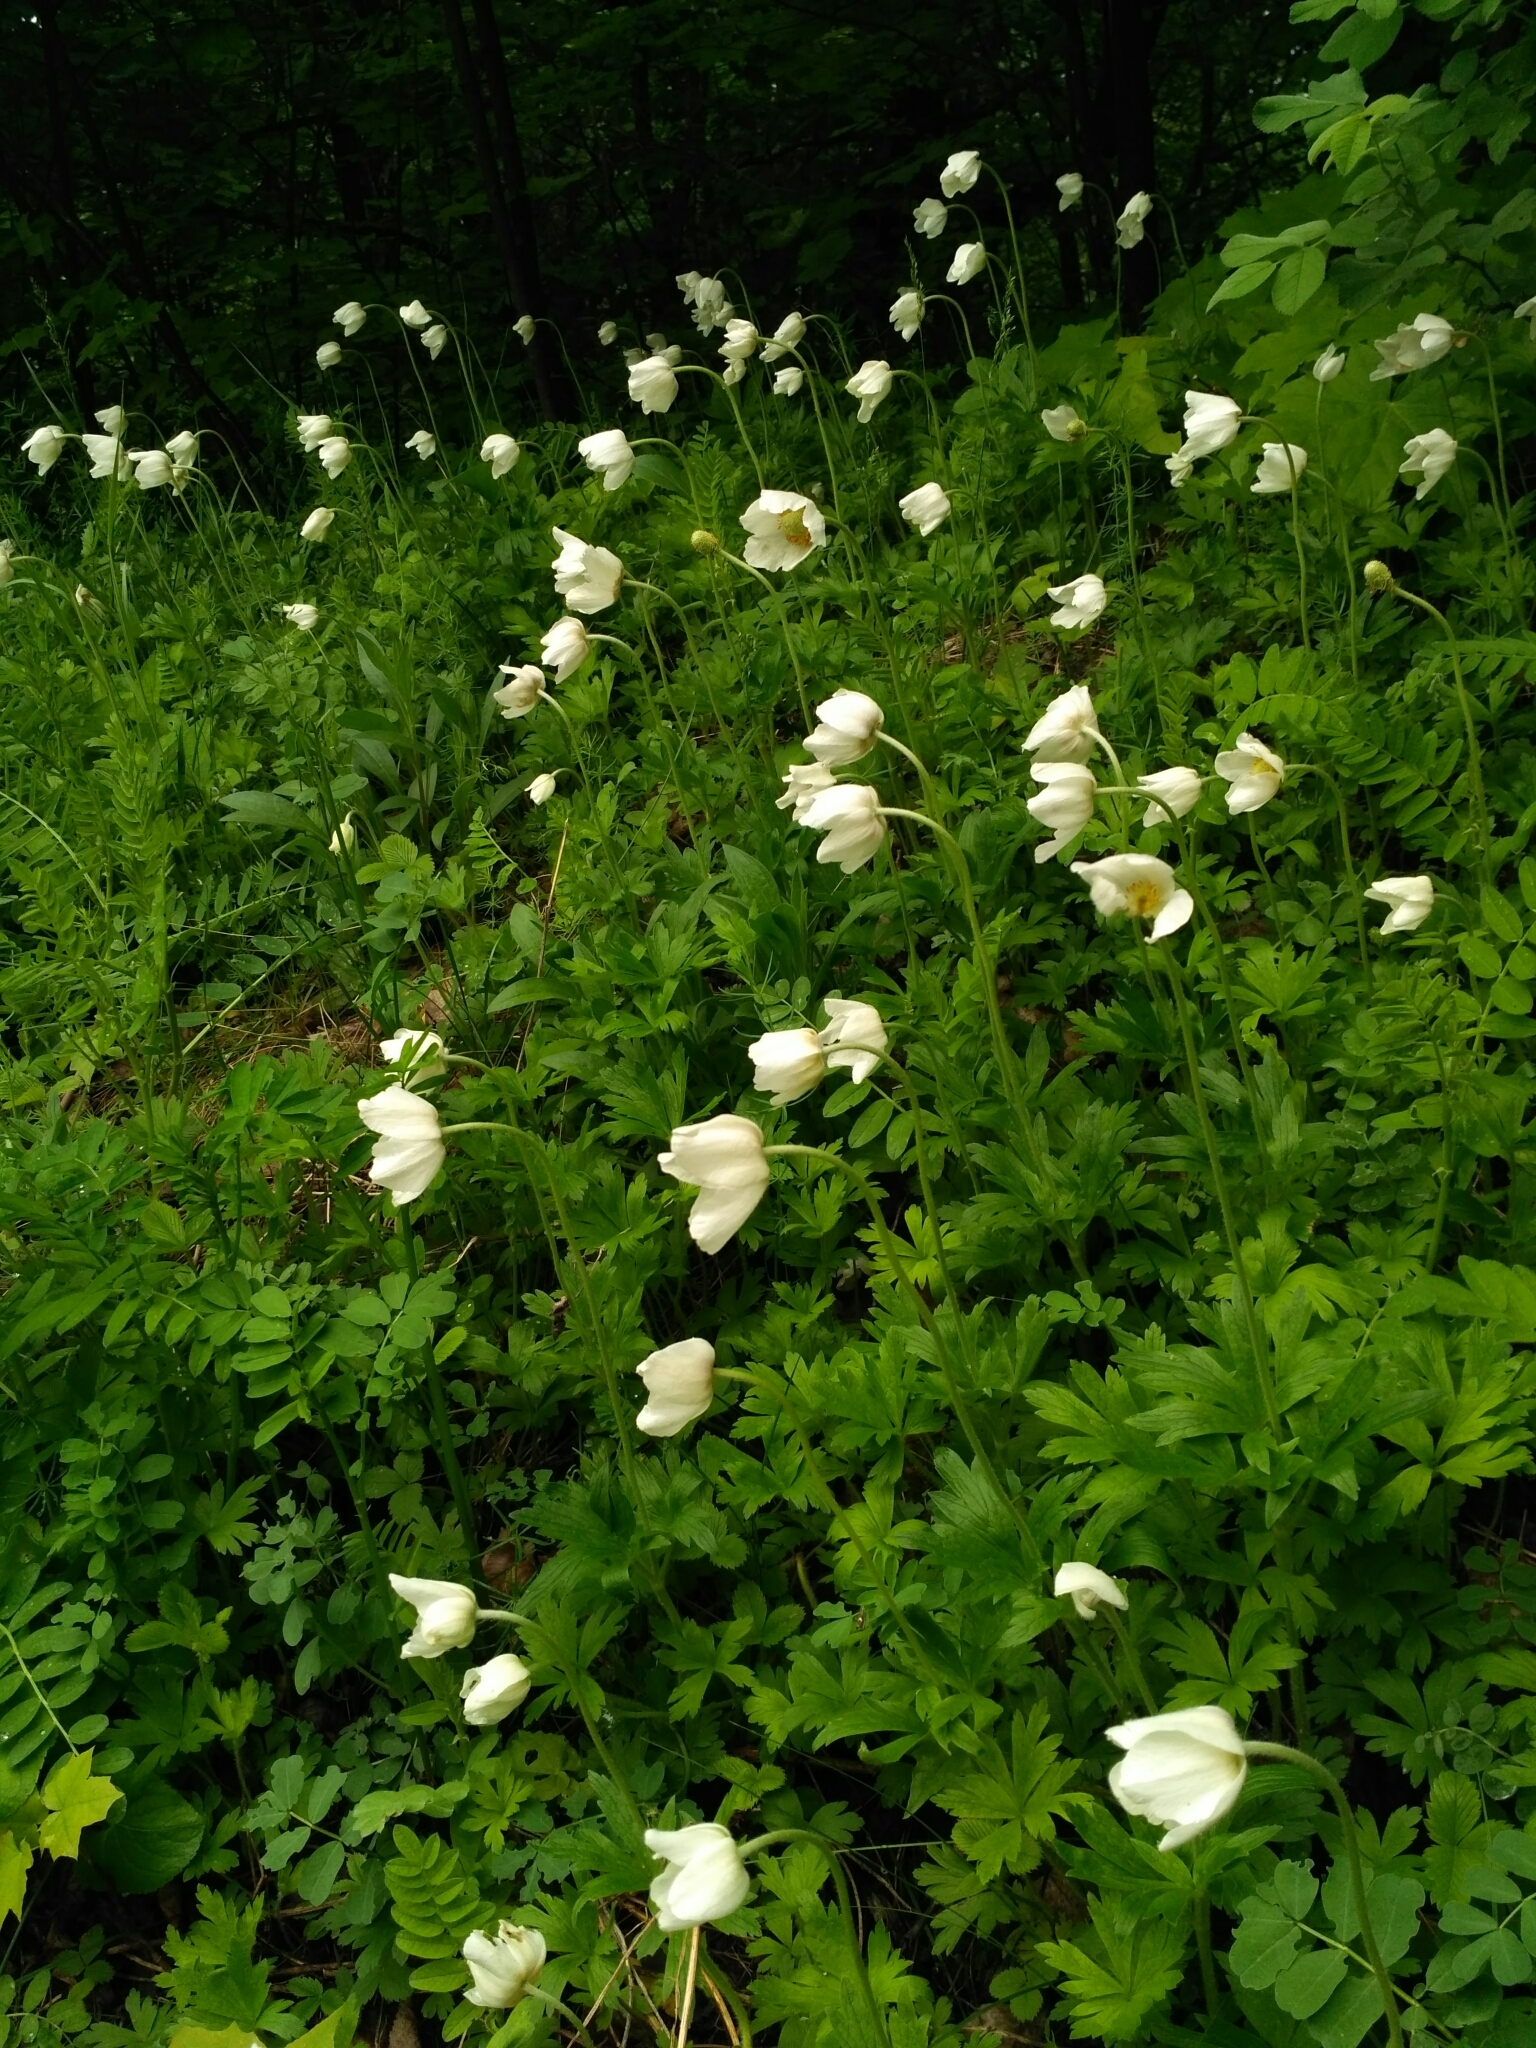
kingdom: Plantae
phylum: Tracheophyta
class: Magnoliopsida
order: Ranunculales
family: Ranunculaceae
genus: Anemone
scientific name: Anemone sylvestris
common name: Snowdrop anemone
